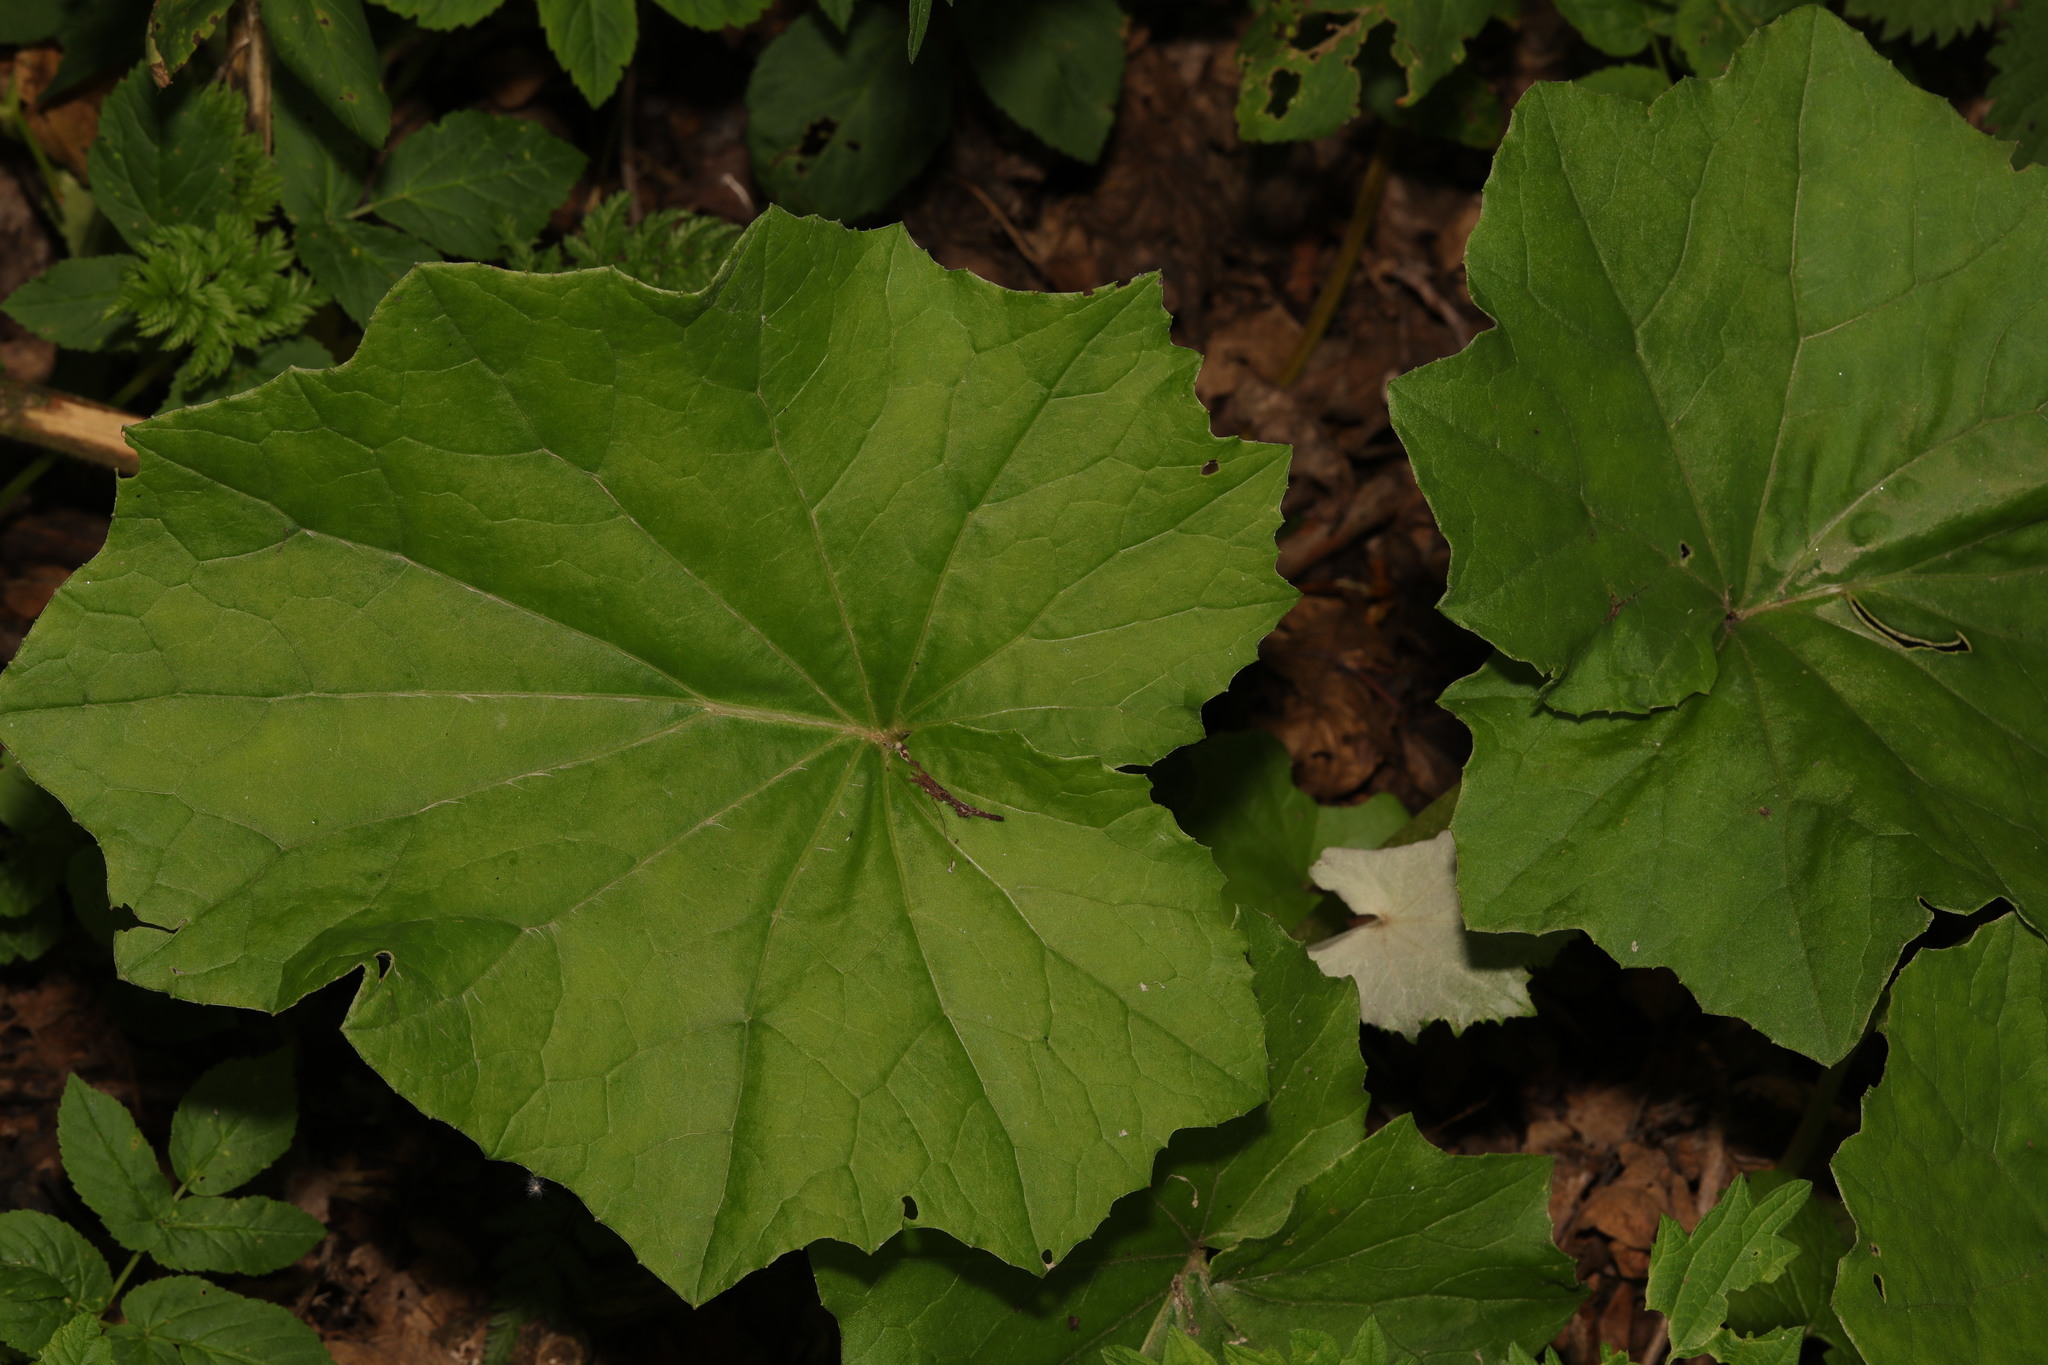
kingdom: Plantae
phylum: Tracheophyta
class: Magnoliopsida
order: Asterales
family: Asteraceae
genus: Tussilago
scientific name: Tussilago farfara
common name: Coltsfoot
